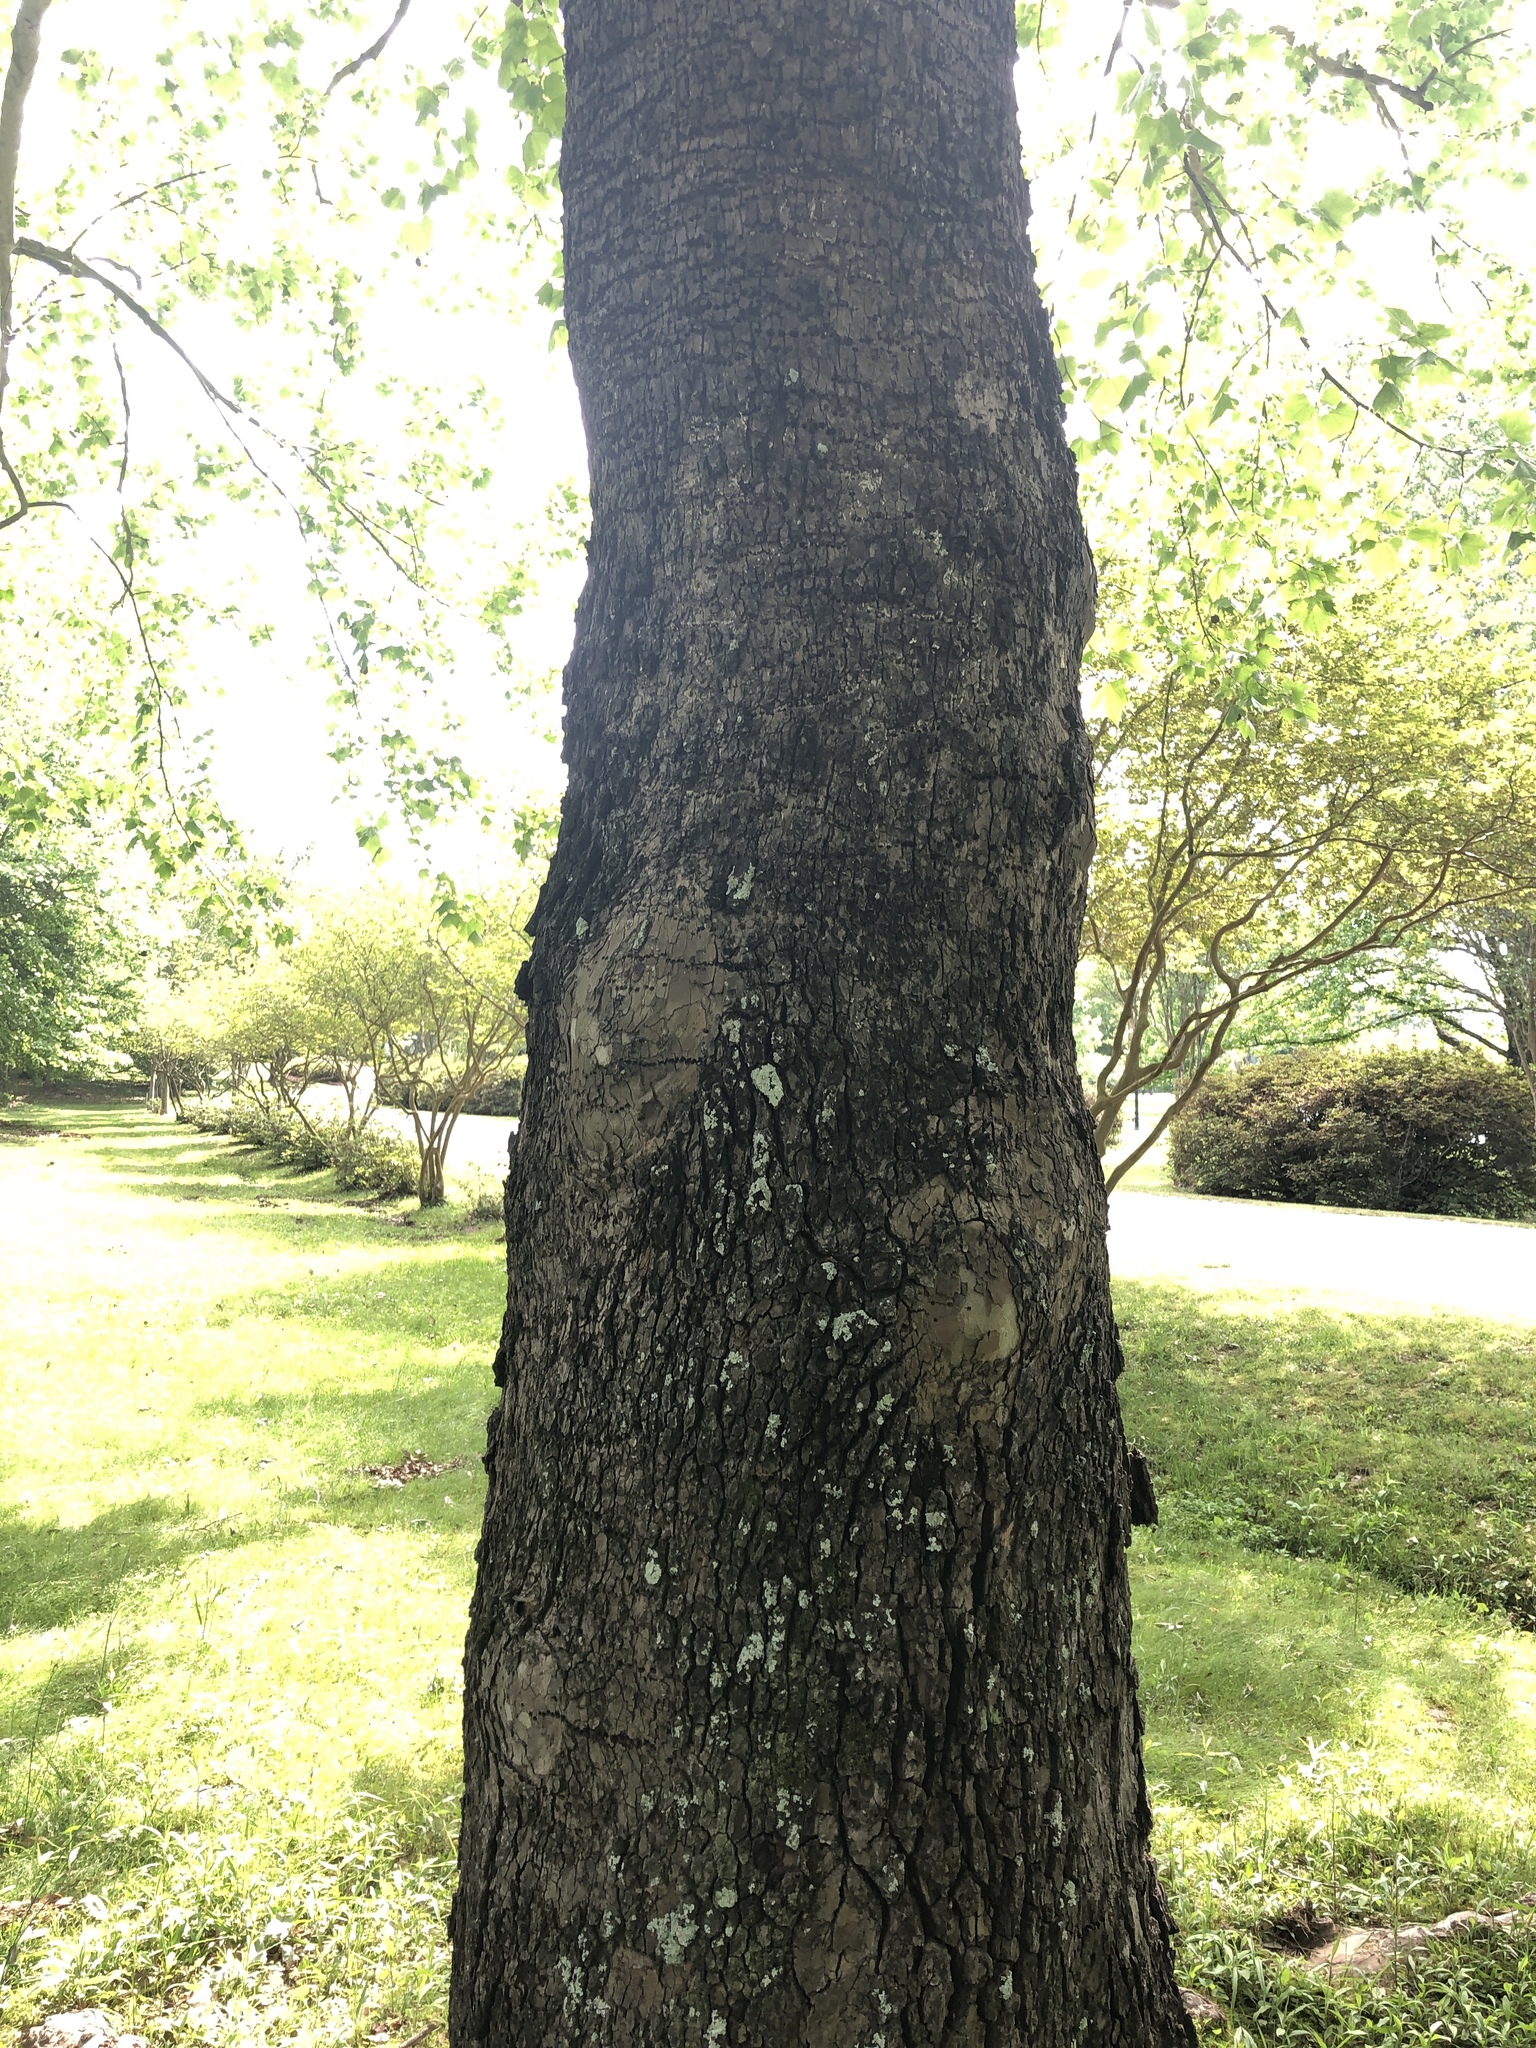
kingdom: Plantae
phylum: Tracheophyta
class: Magnoliopsida
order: Proteales
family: Platanaceae
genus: Platanus
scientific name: Platanus occidentalis
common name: American sycamore
